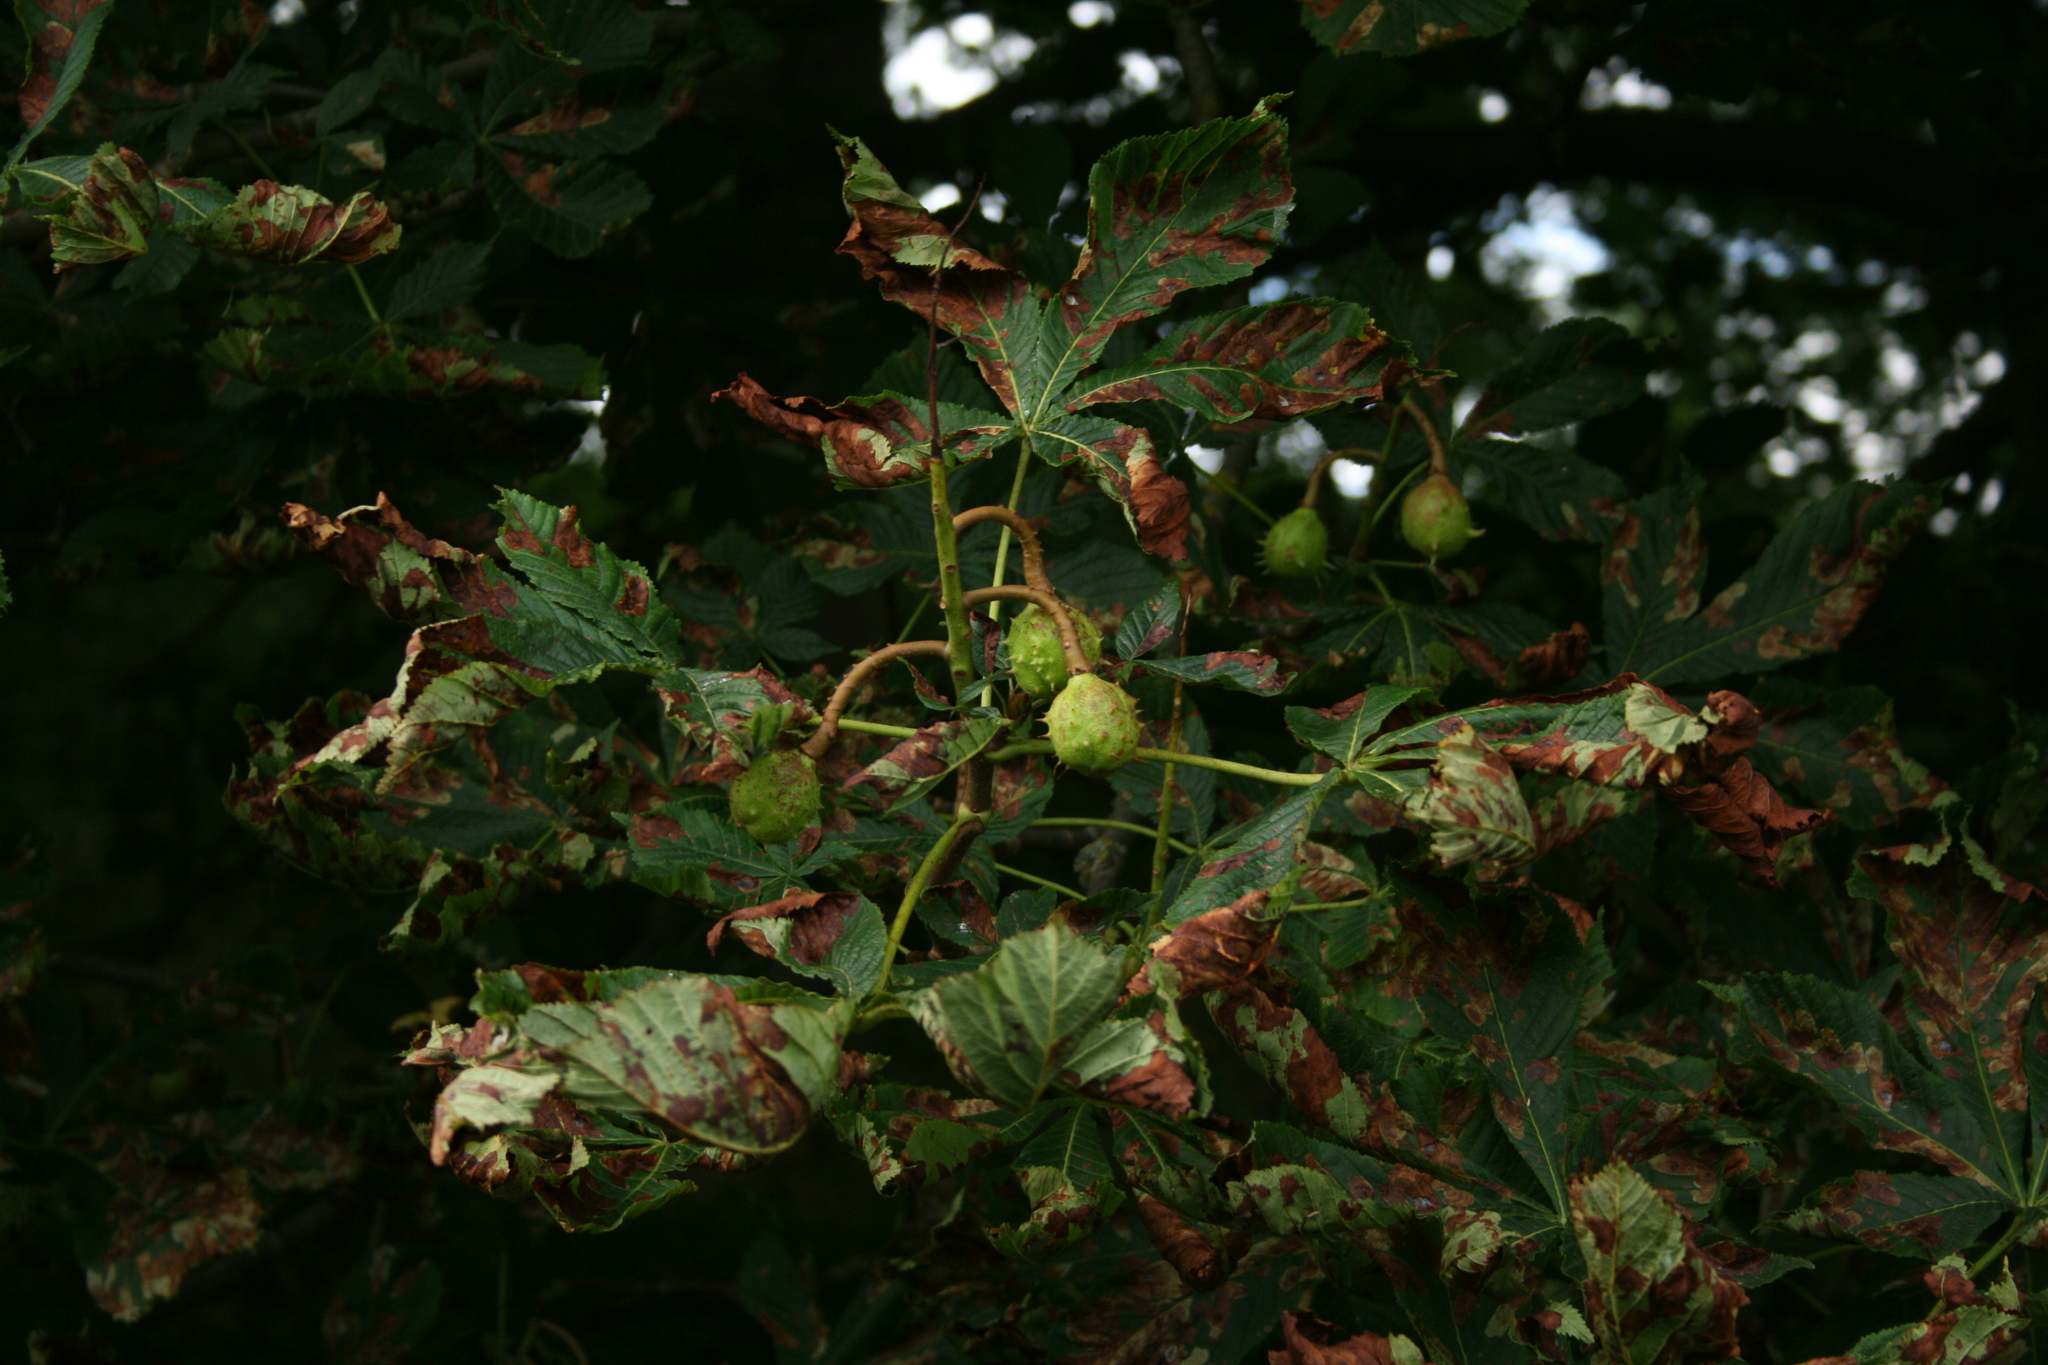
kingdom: Animalia
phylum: Arthropoda
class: Insecta
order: Lepidoptera
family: Gracillariidae
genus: Cameraria
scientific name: Cameraria ohridella
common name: Horse-chestnut leaf-miner
